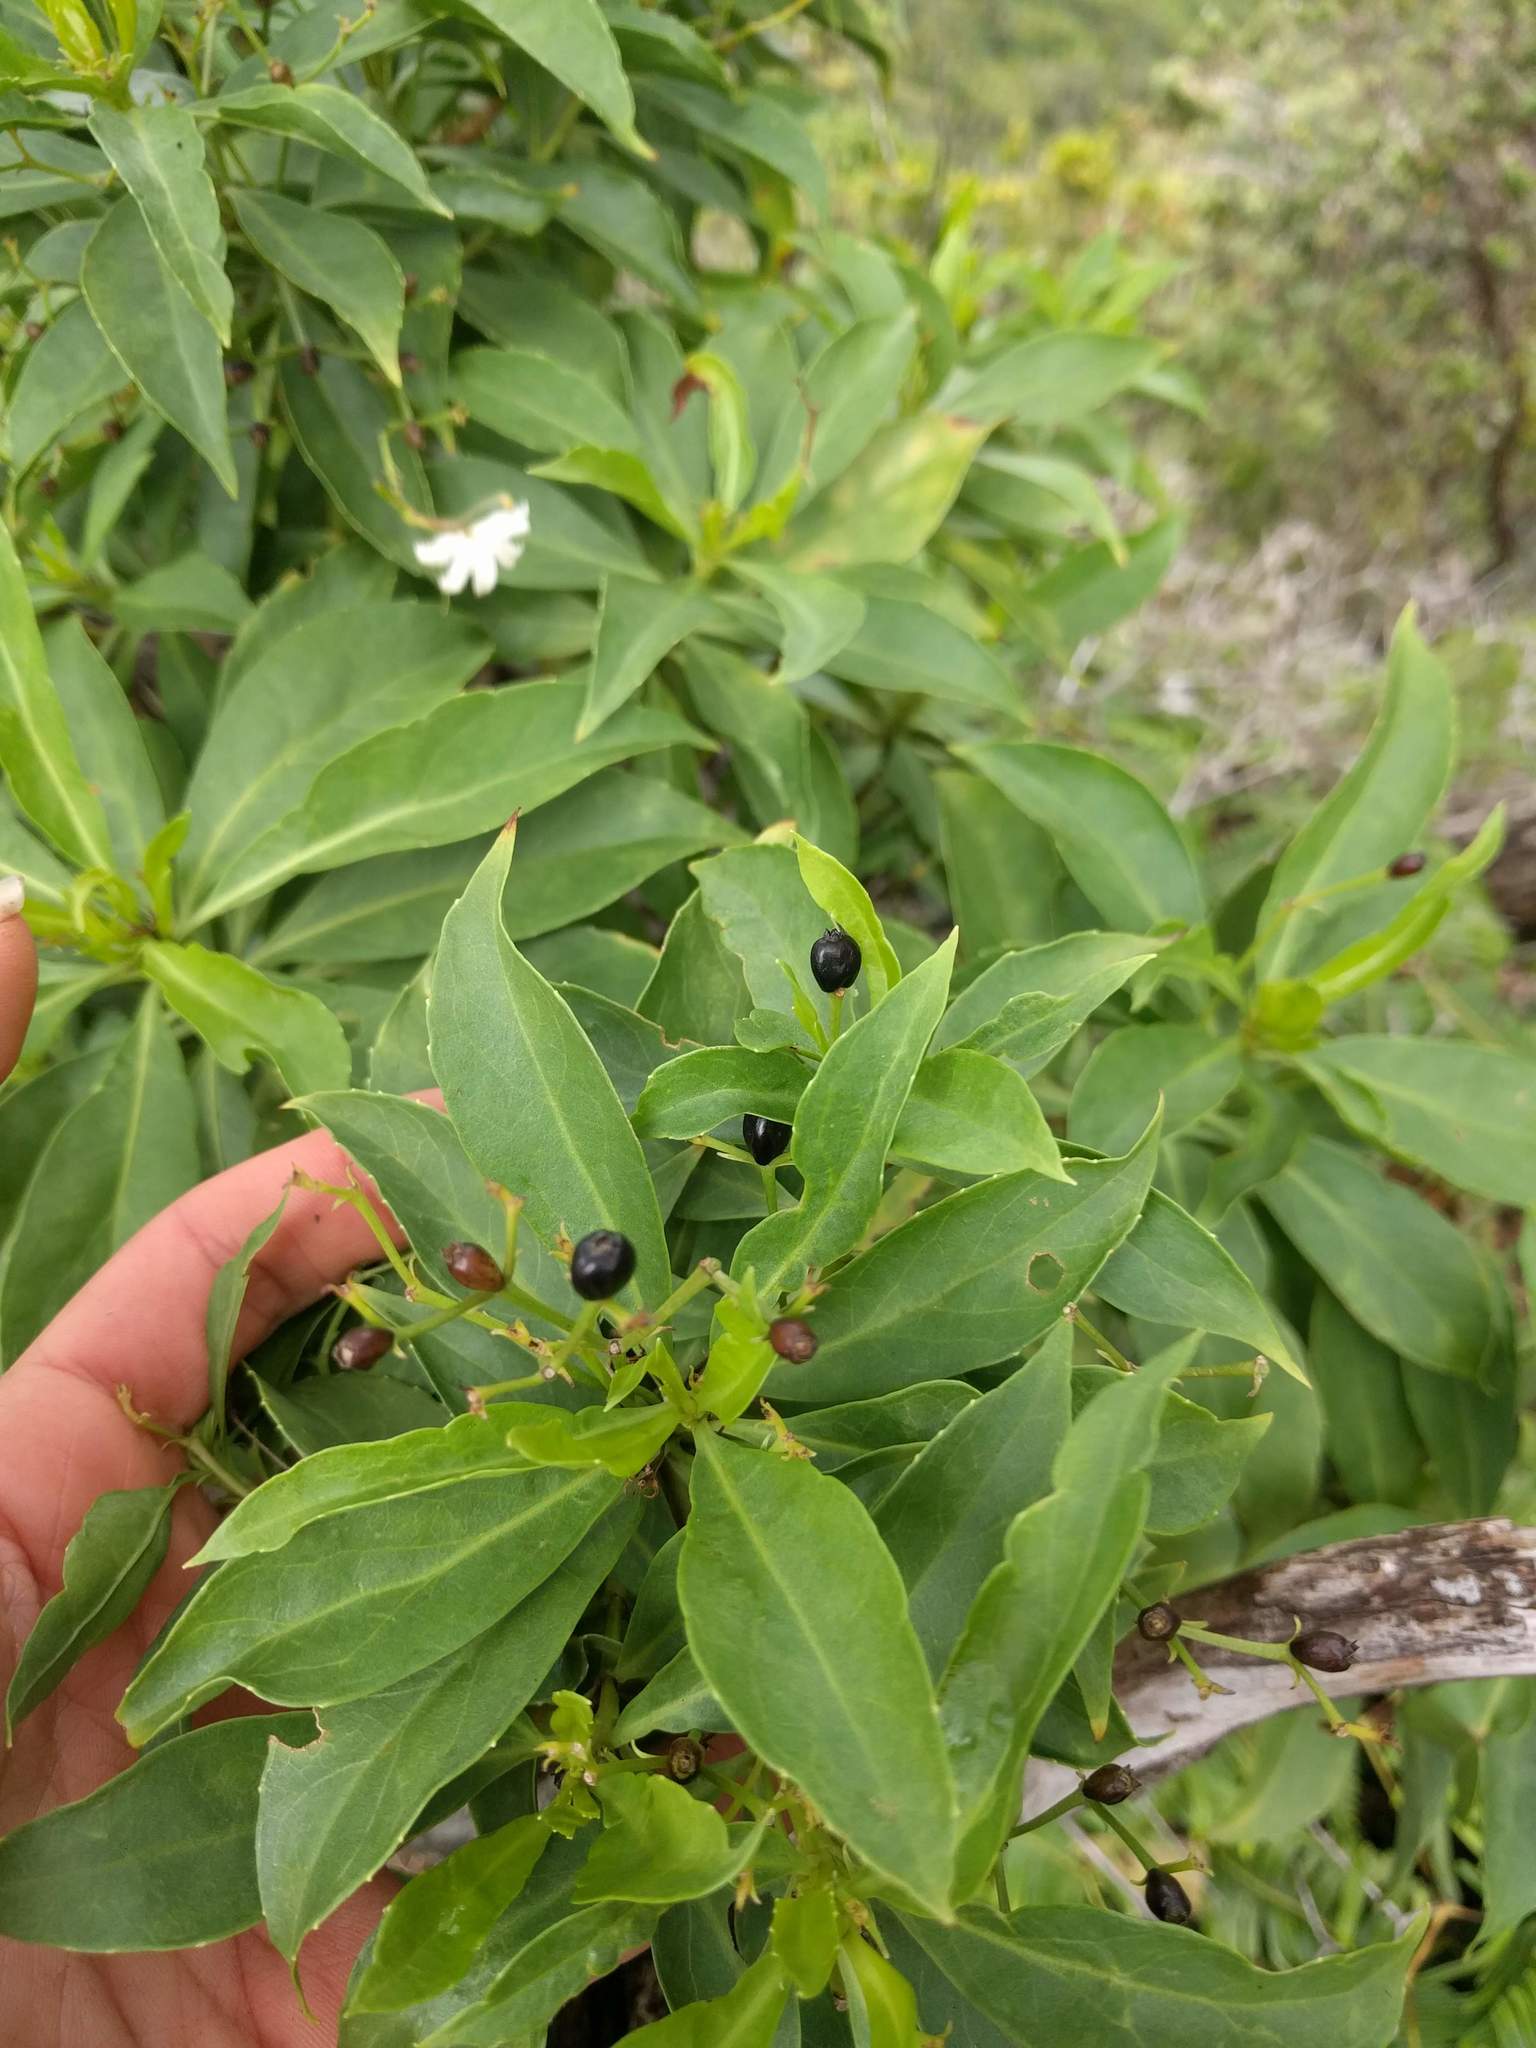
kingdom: Plantae
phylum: Tracheophyta
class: Magnoliopsida
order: Asterales
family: Goodeniaceae
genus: Scaevola
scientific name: Scaevola gaudichaudiana
